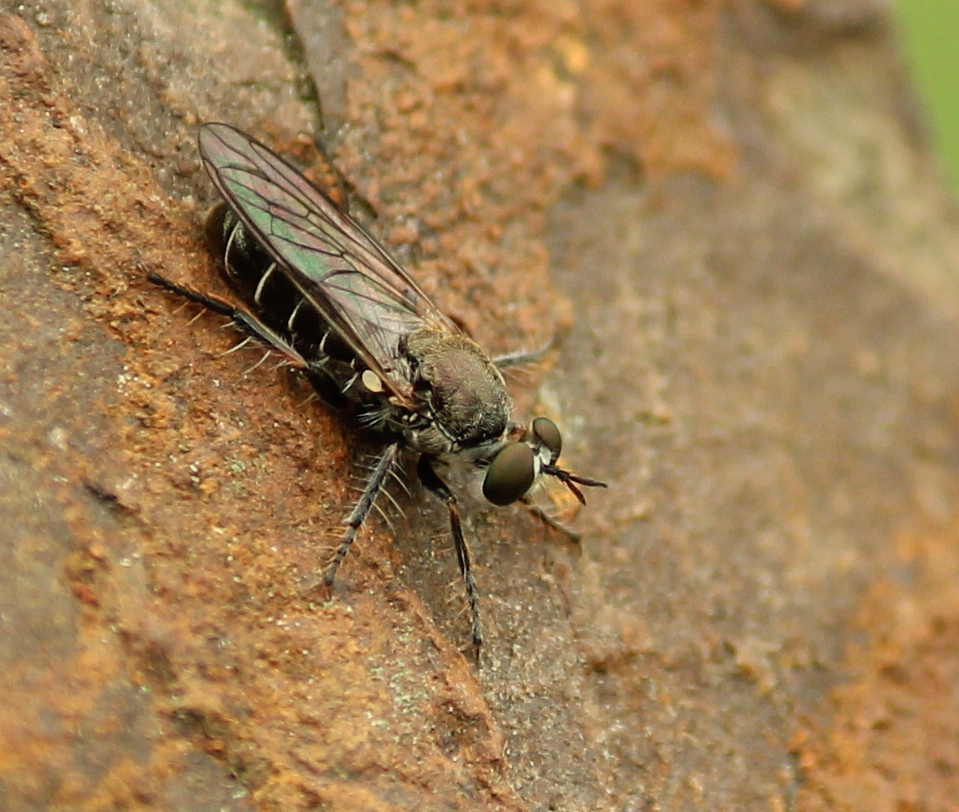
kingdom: Animalia
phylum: Arthropoda
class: Insecta
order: Diptera
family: Asilidae
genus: Atomosia
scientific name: Atomosia puella
